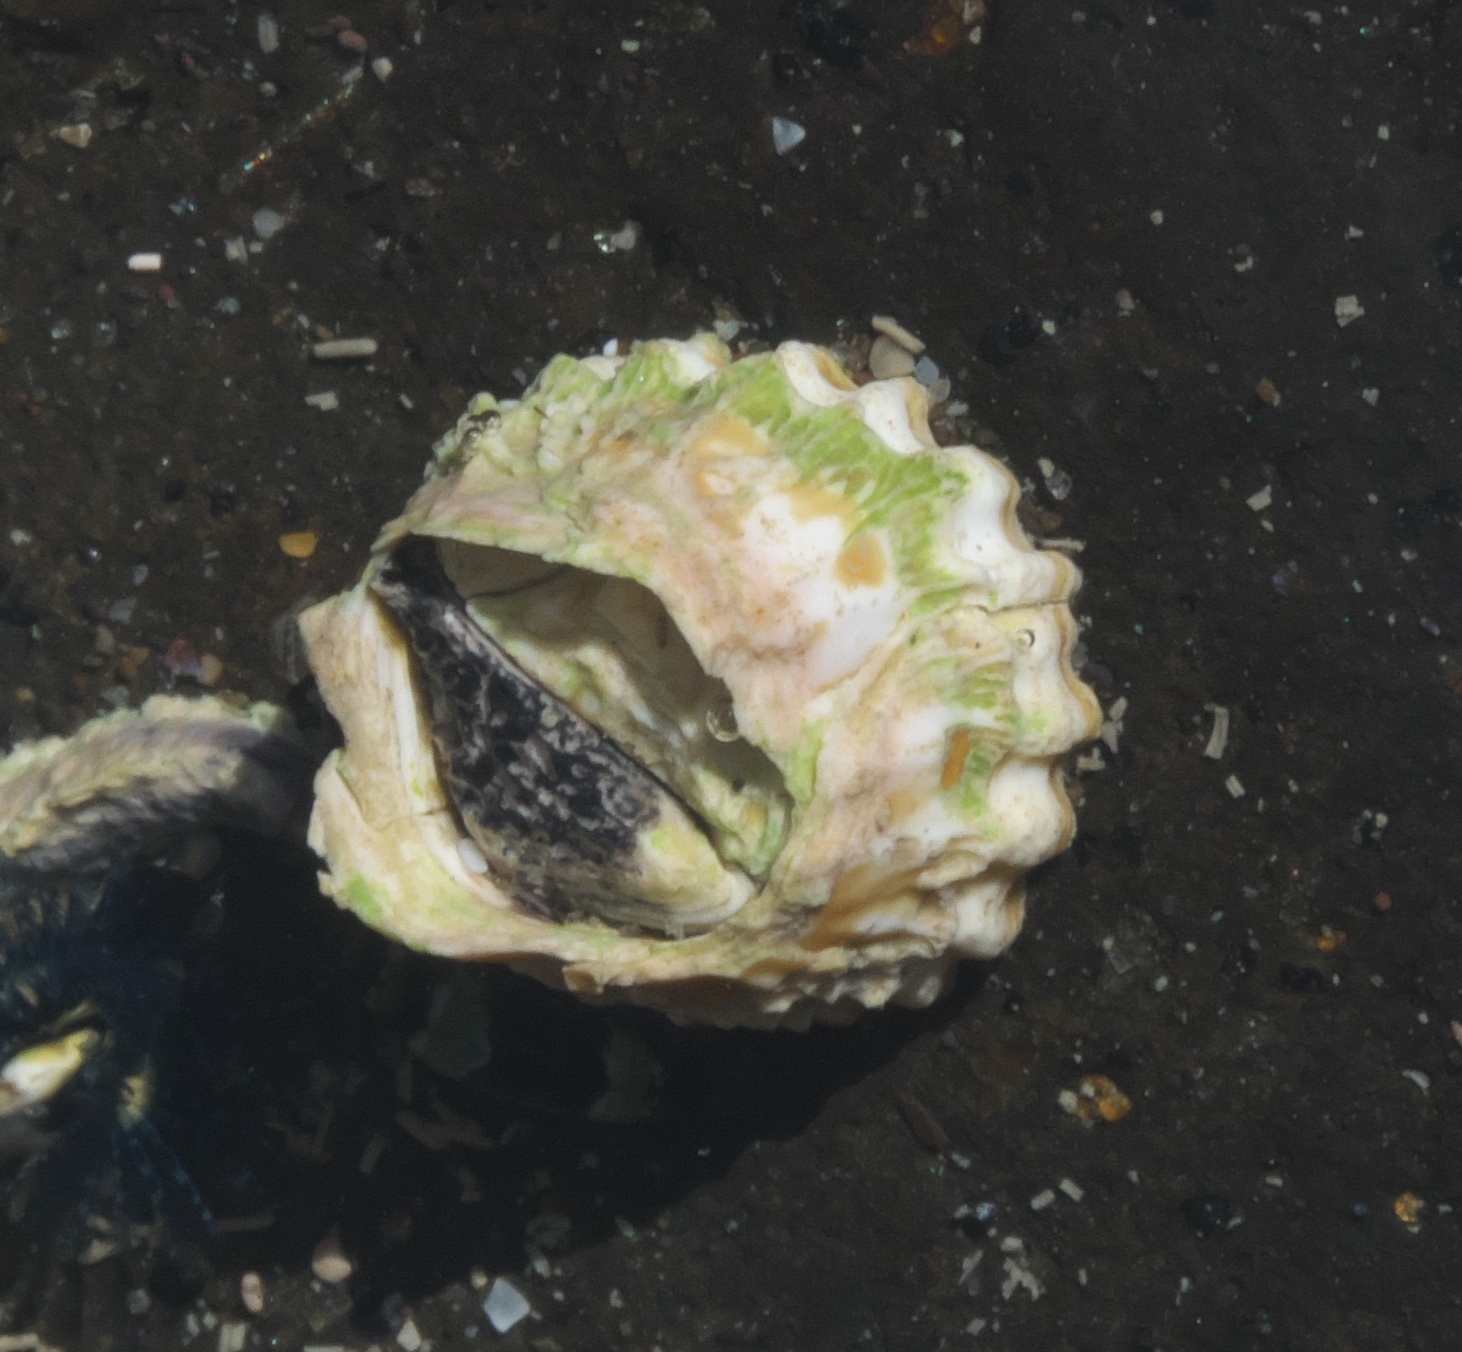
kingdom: Animalia
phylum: Arthropoda
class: Maxillopoda
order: Sessilia
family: Tetraclitidae
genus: Epopella
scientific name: Epopella plicata
